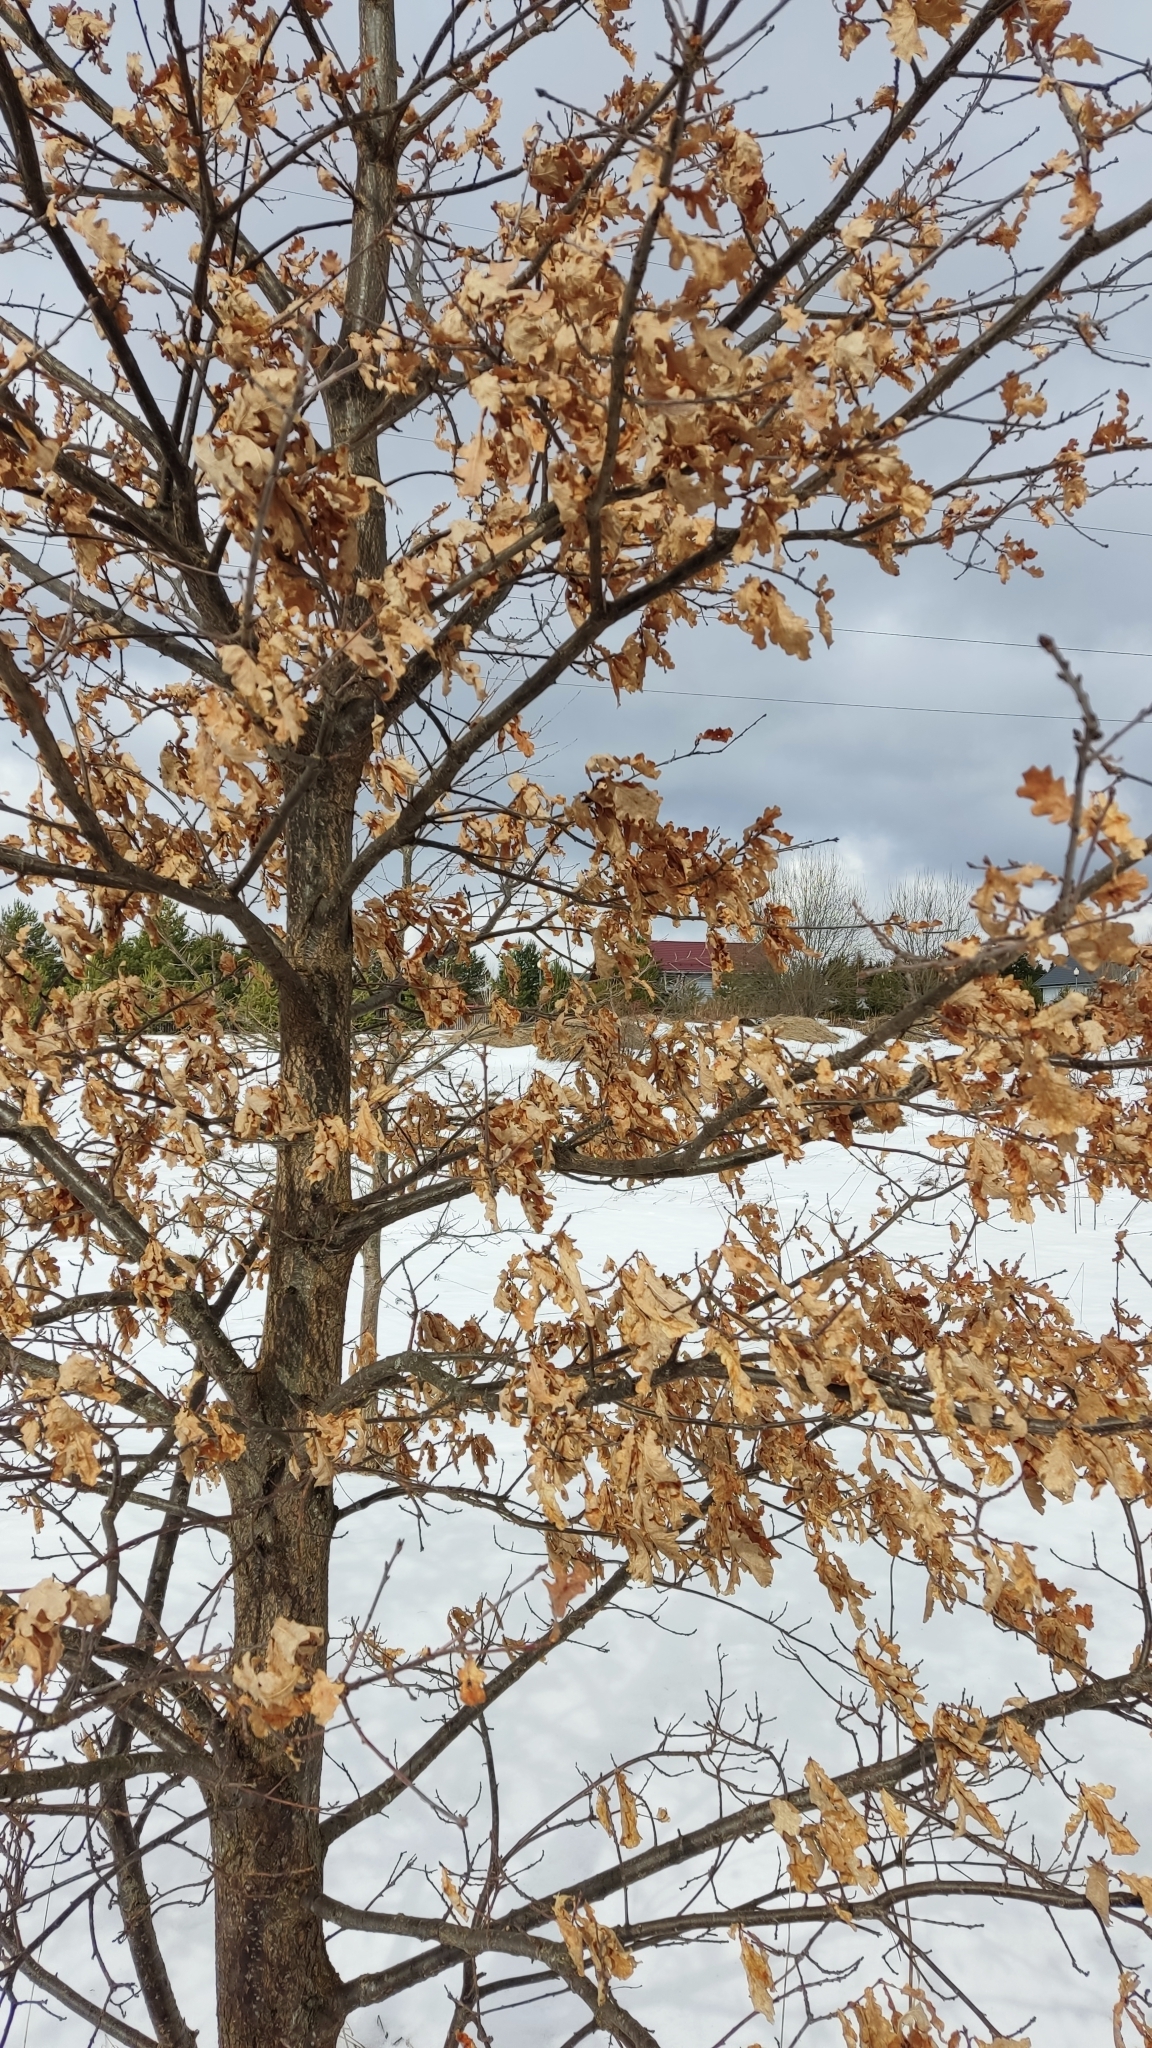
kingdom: Plantae
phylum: Tracheophyta
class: Magnoliopsida
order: Fagales
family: Fagaceae
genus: Quercus
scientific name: Quercus robur
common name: Pedunculate oak
